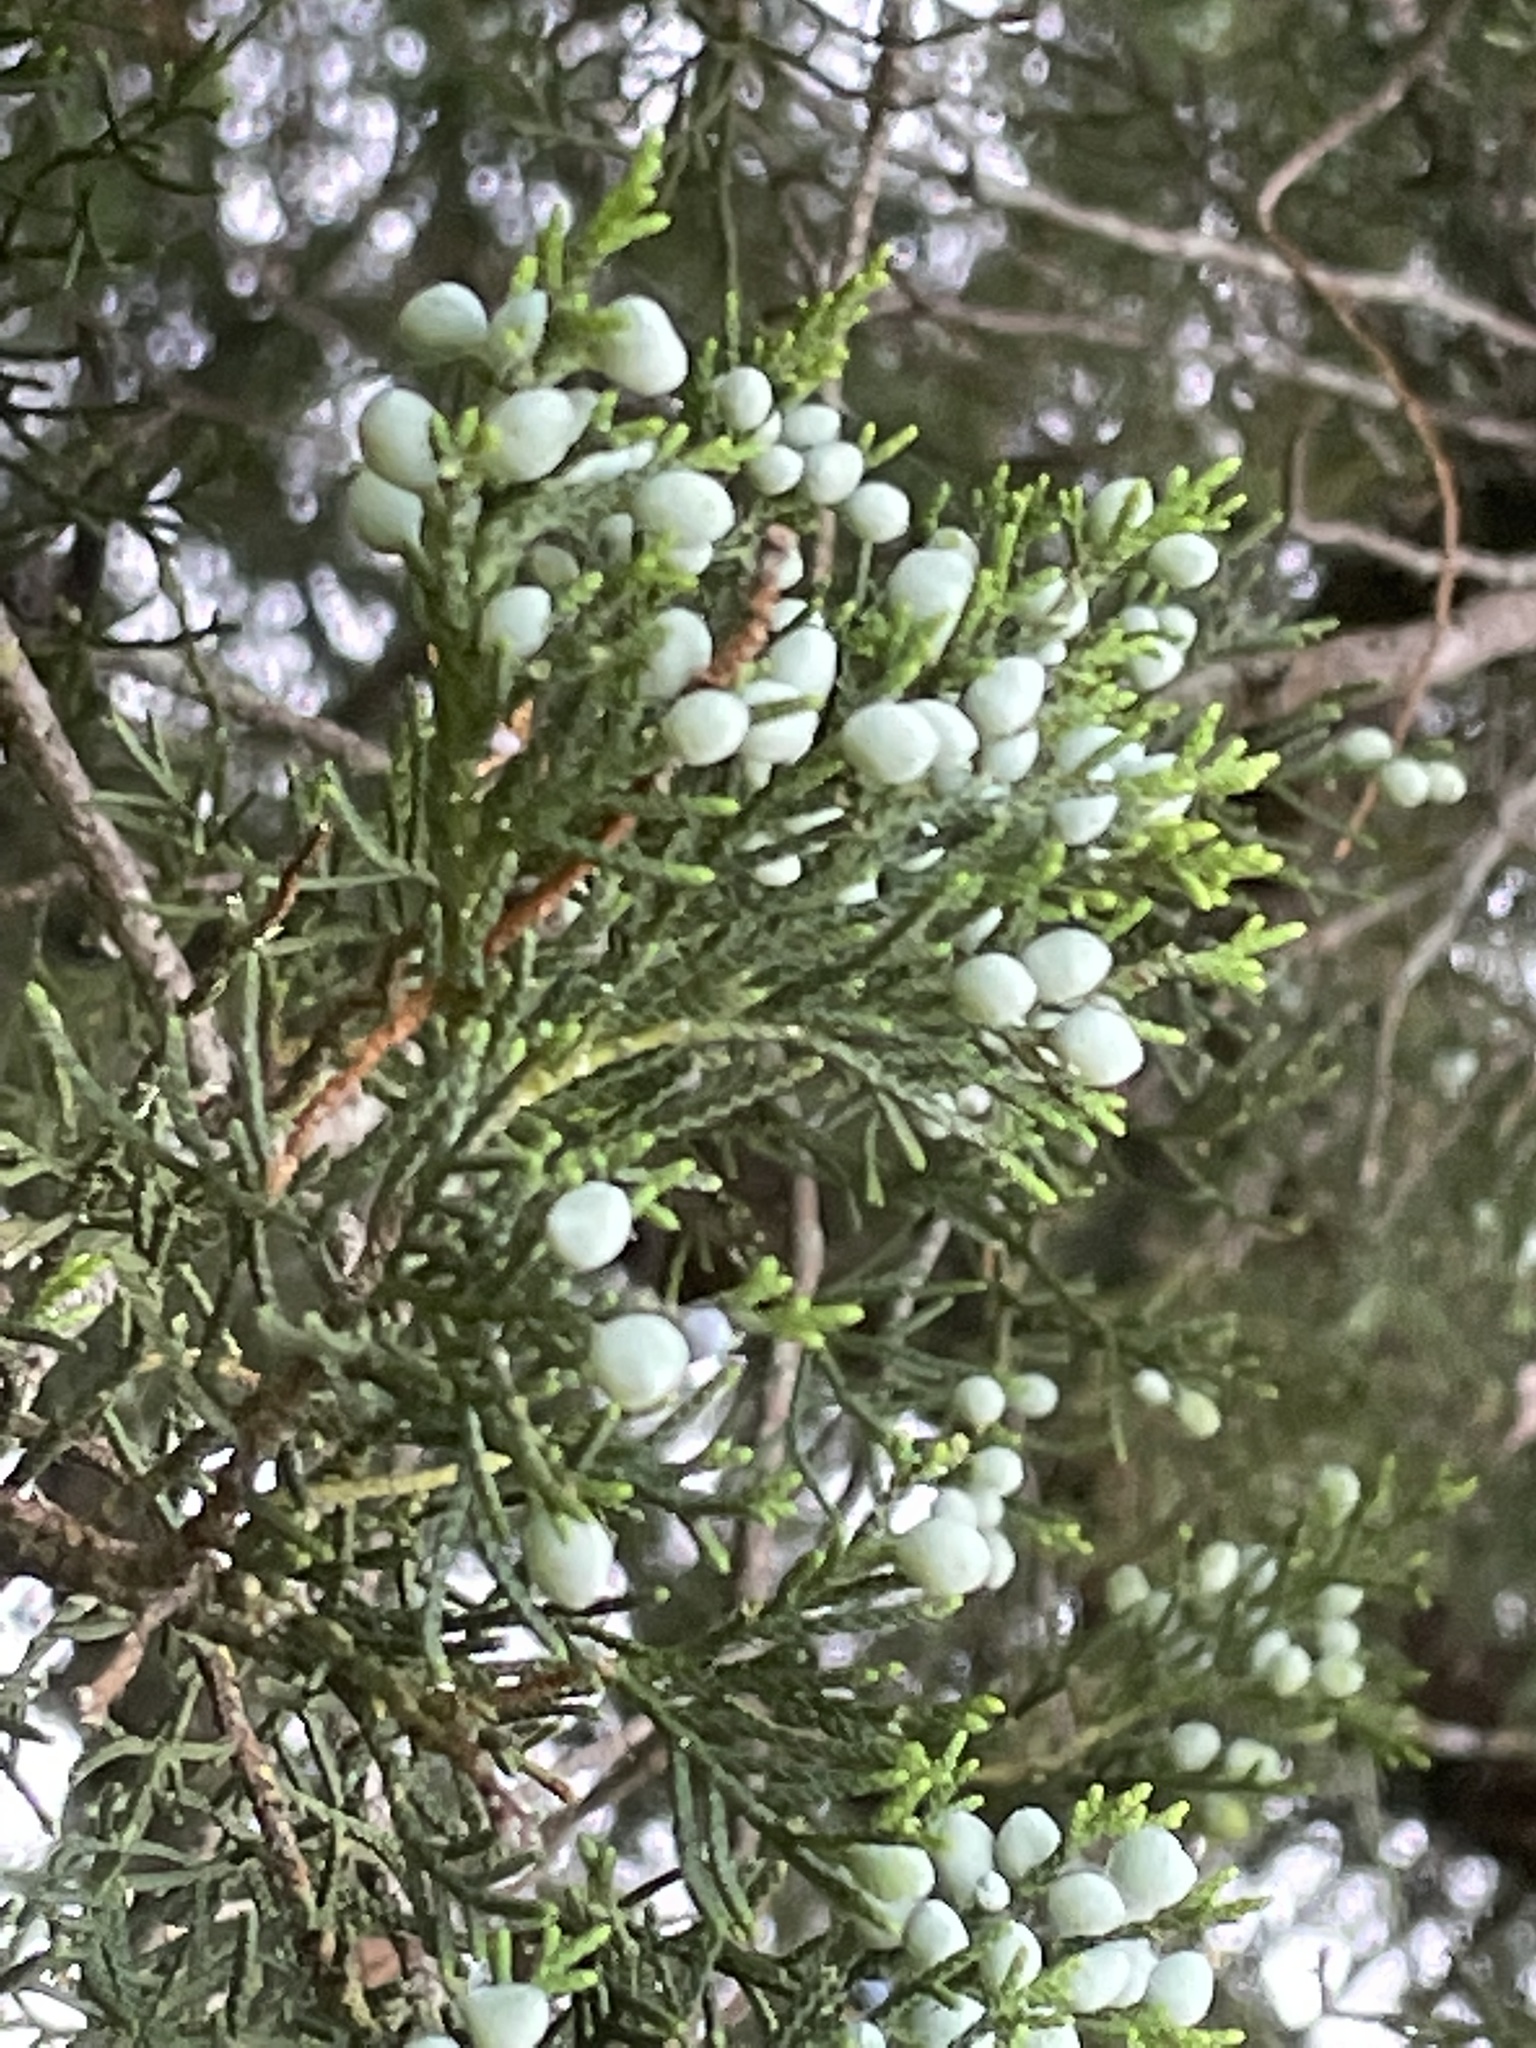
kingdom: Plantae
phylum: Tracheophyta
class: Pinopsida
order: Pinales
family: Cupressaceae
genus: Juniperus
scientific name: Juniperus virginiana
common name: Red juniper
